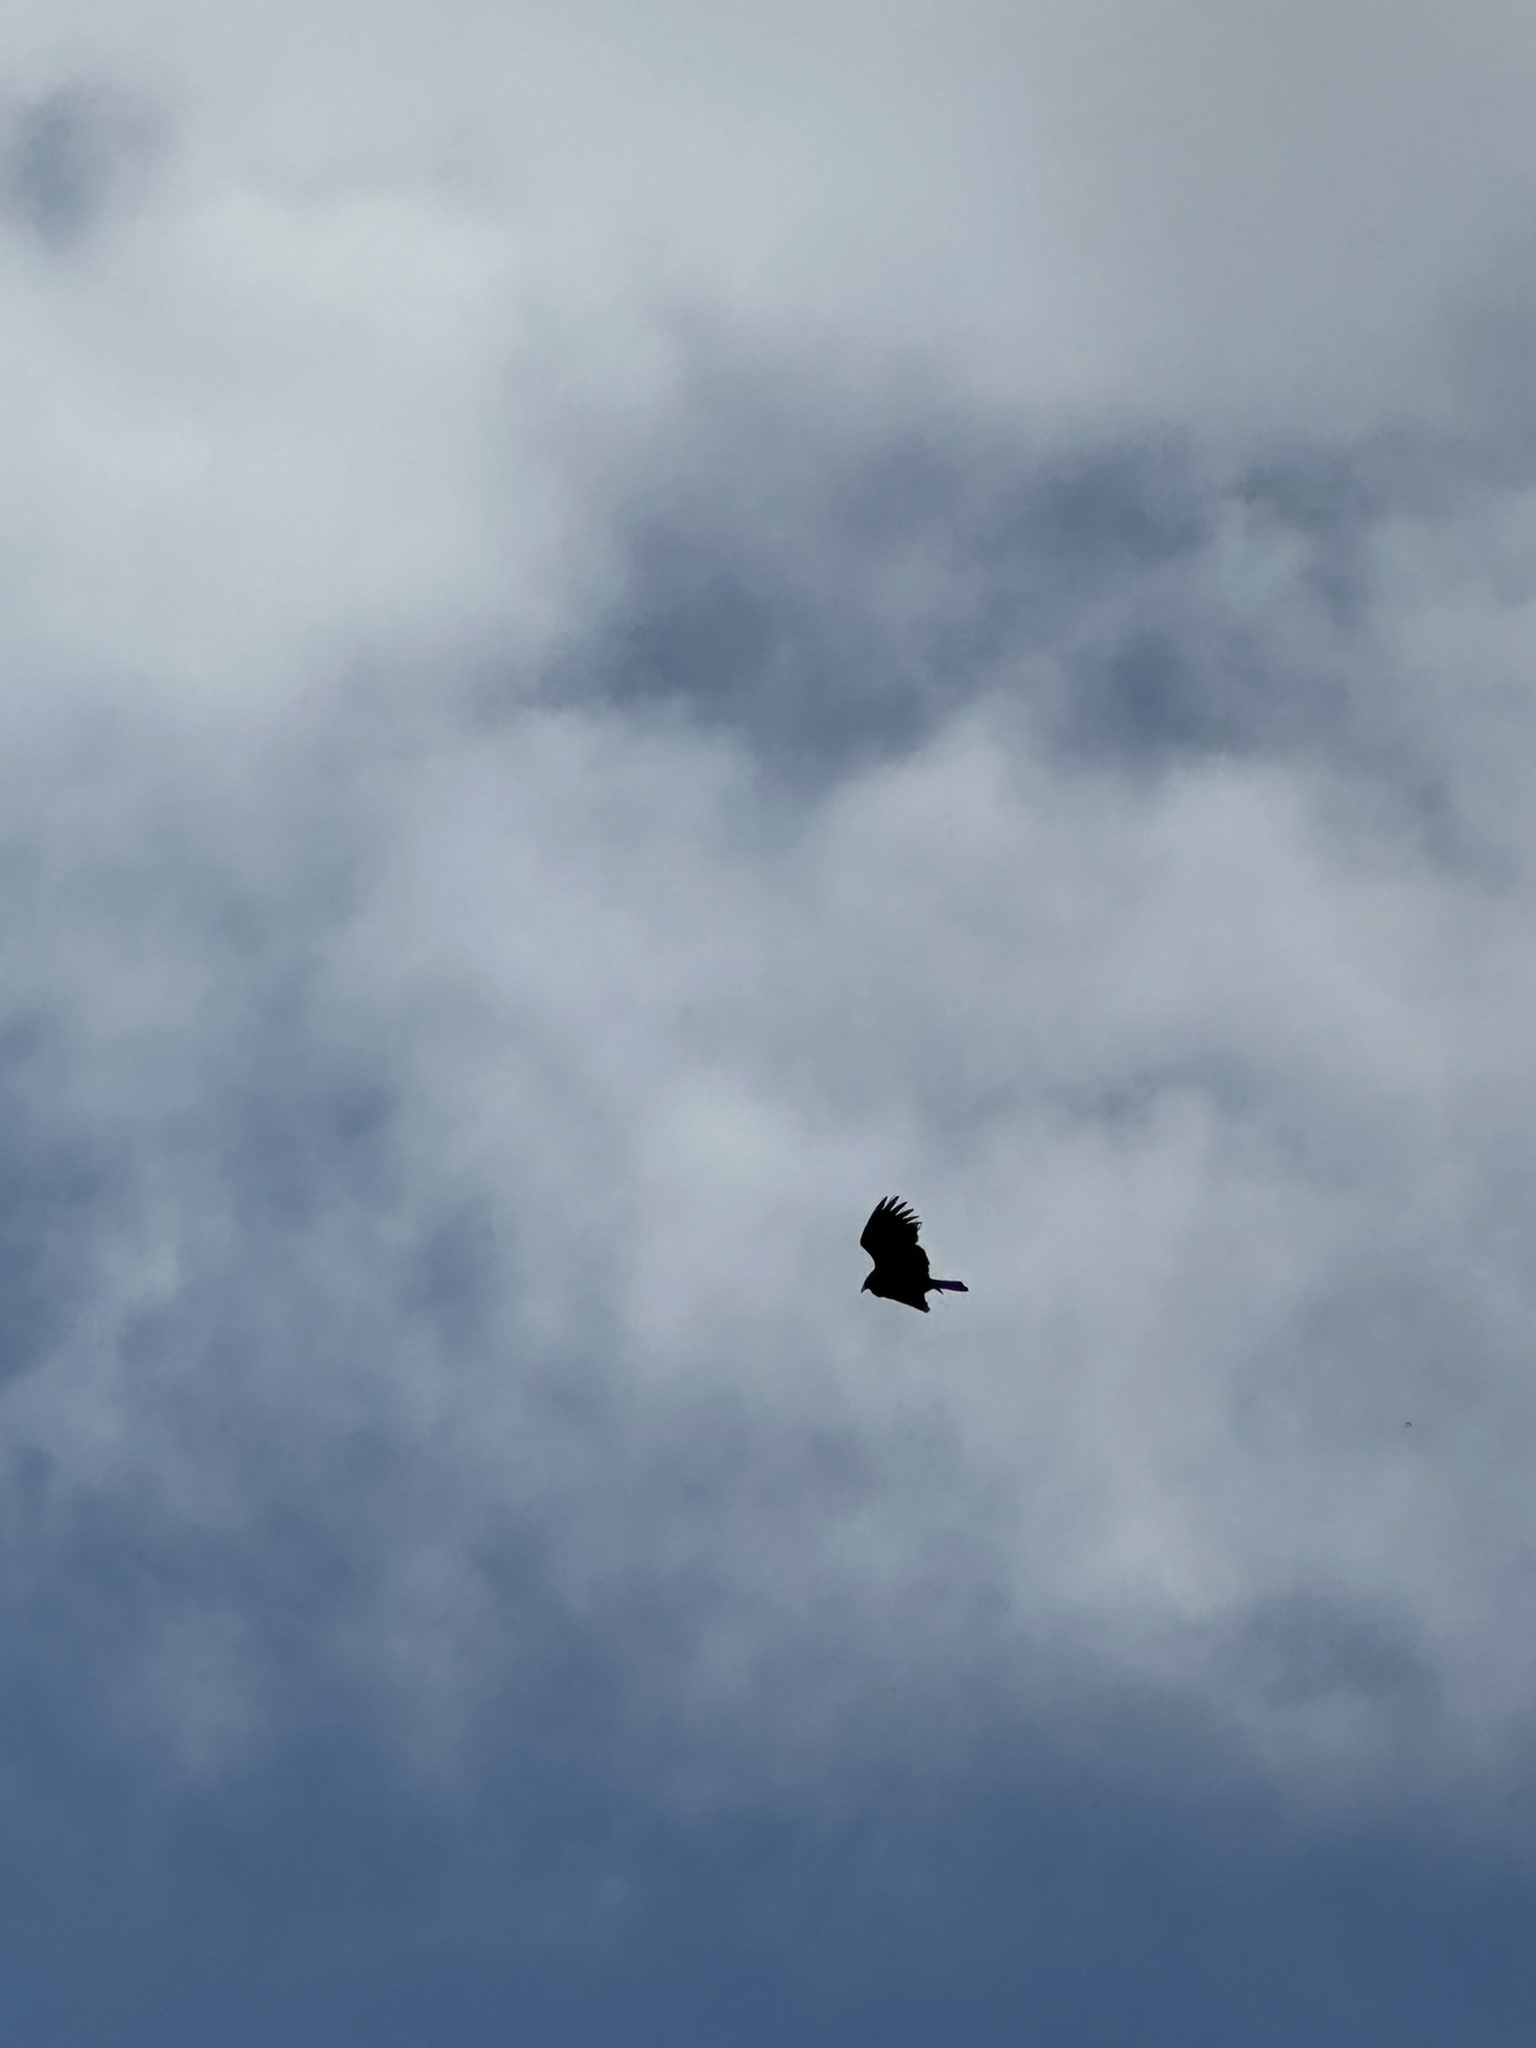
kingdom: Animalia
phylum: Chordata
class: Aves
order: Accipitriformes
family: Cathartidae
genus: Cathartes
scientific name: Cathartes aura
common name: Turkey vulture
